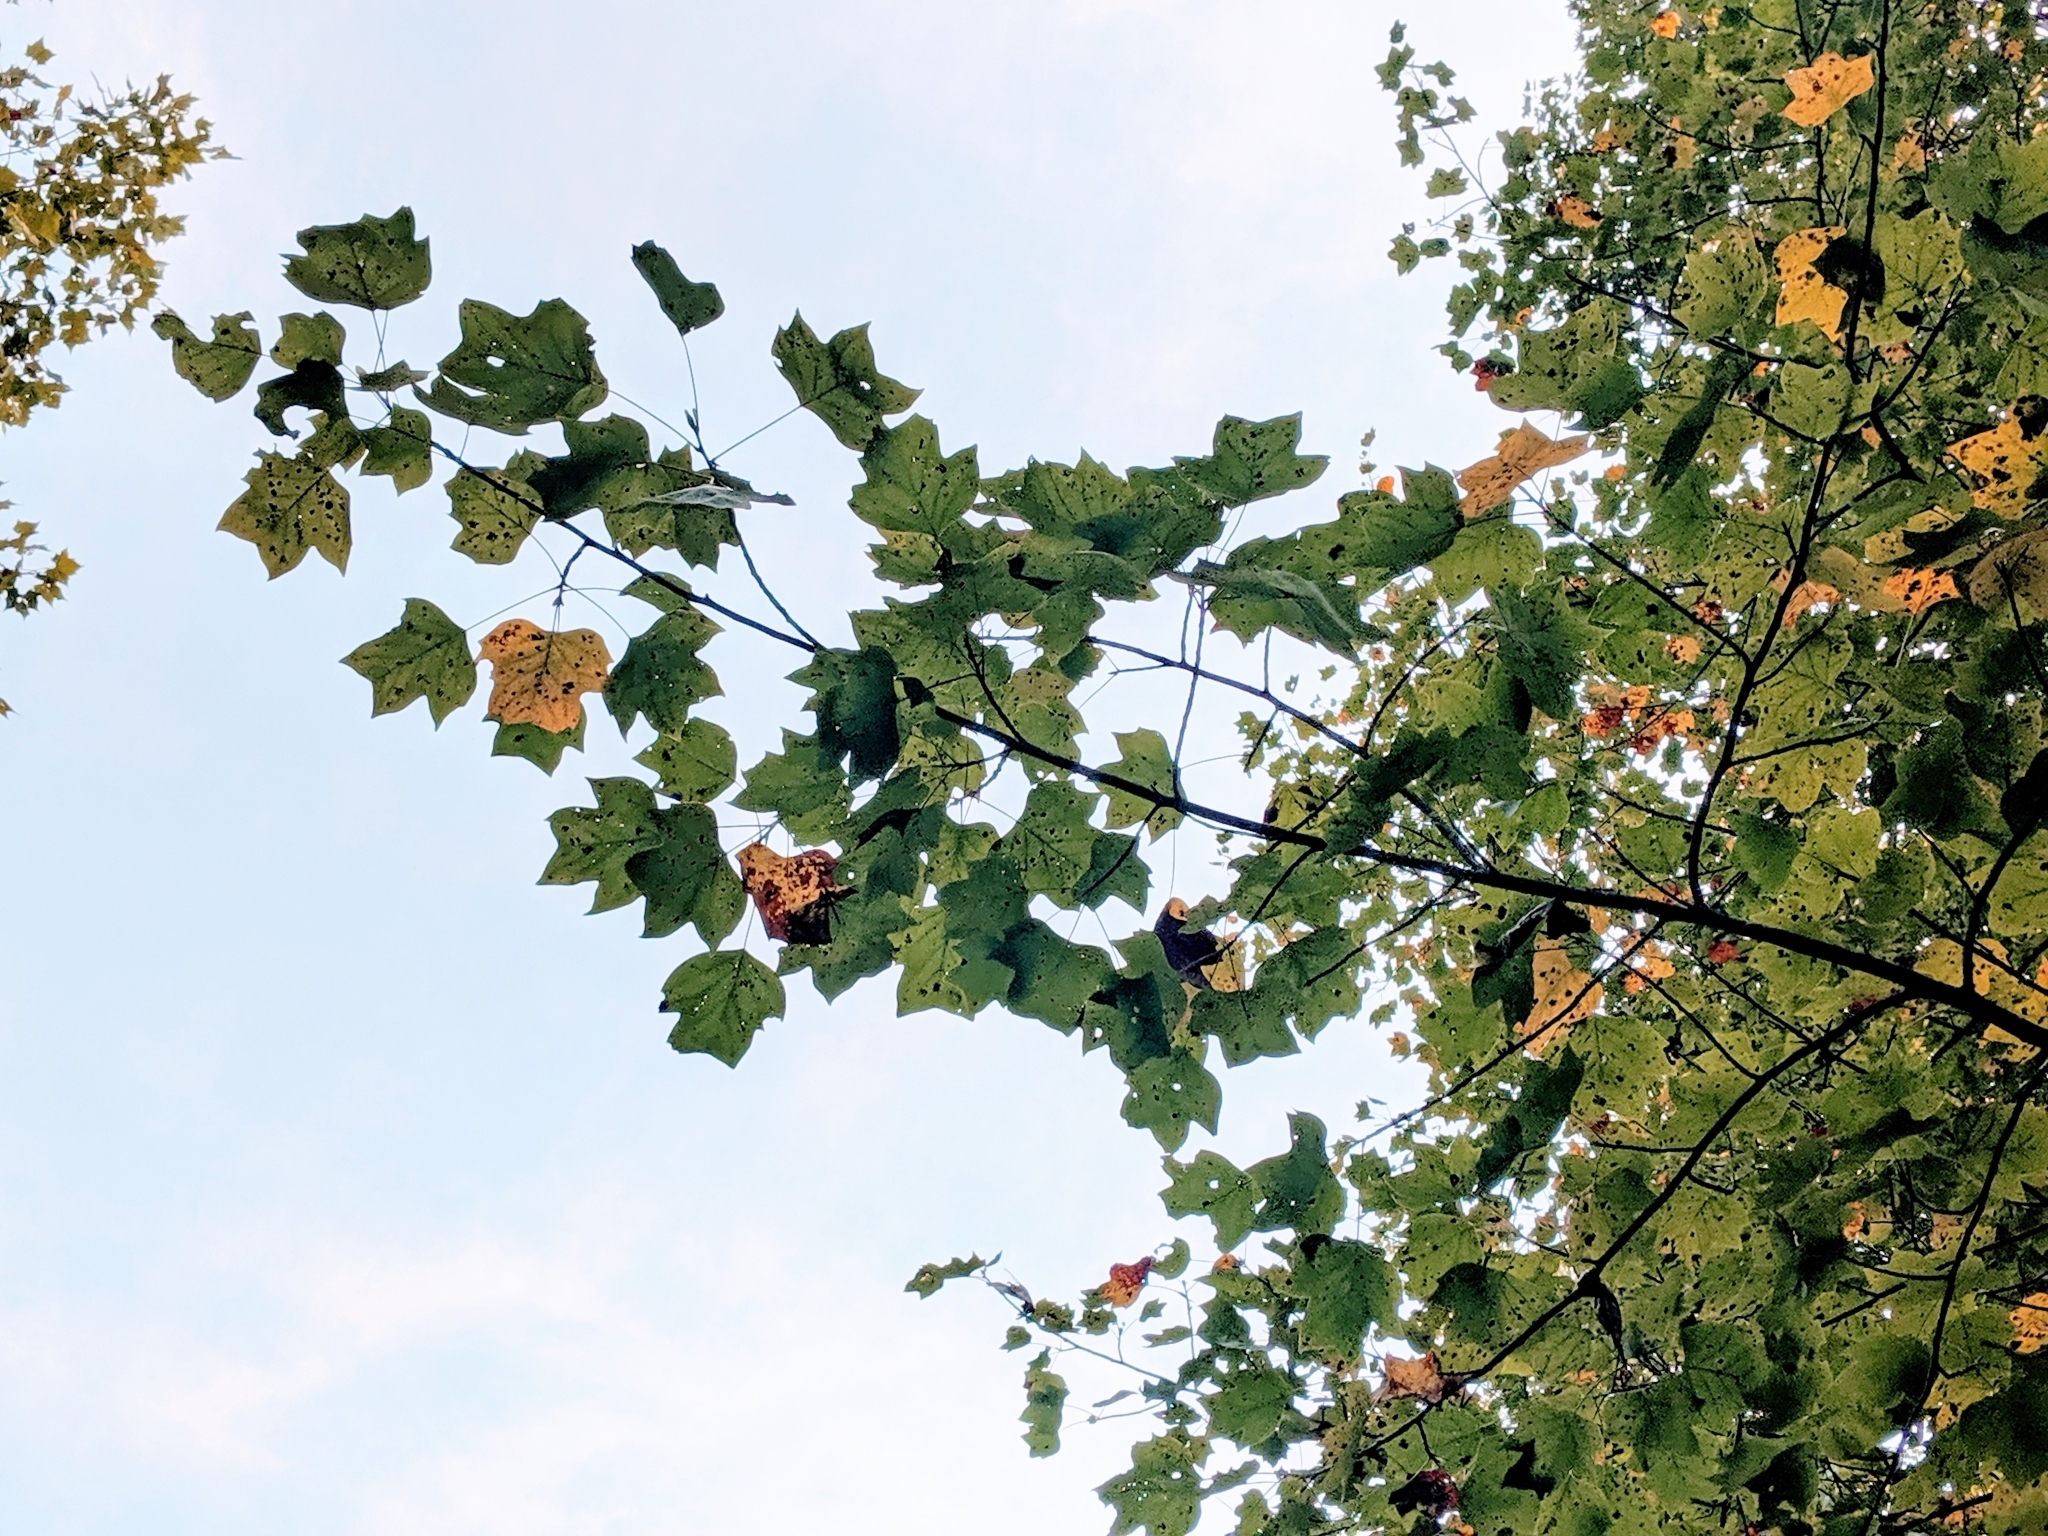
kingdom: Plantae
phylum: Tracheophyta
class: Magnoliopsida
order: Magnoliales
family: Magnoliaceae
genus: Liriodendron
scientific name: Liriodendron tulipifera
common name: Tulip tree
